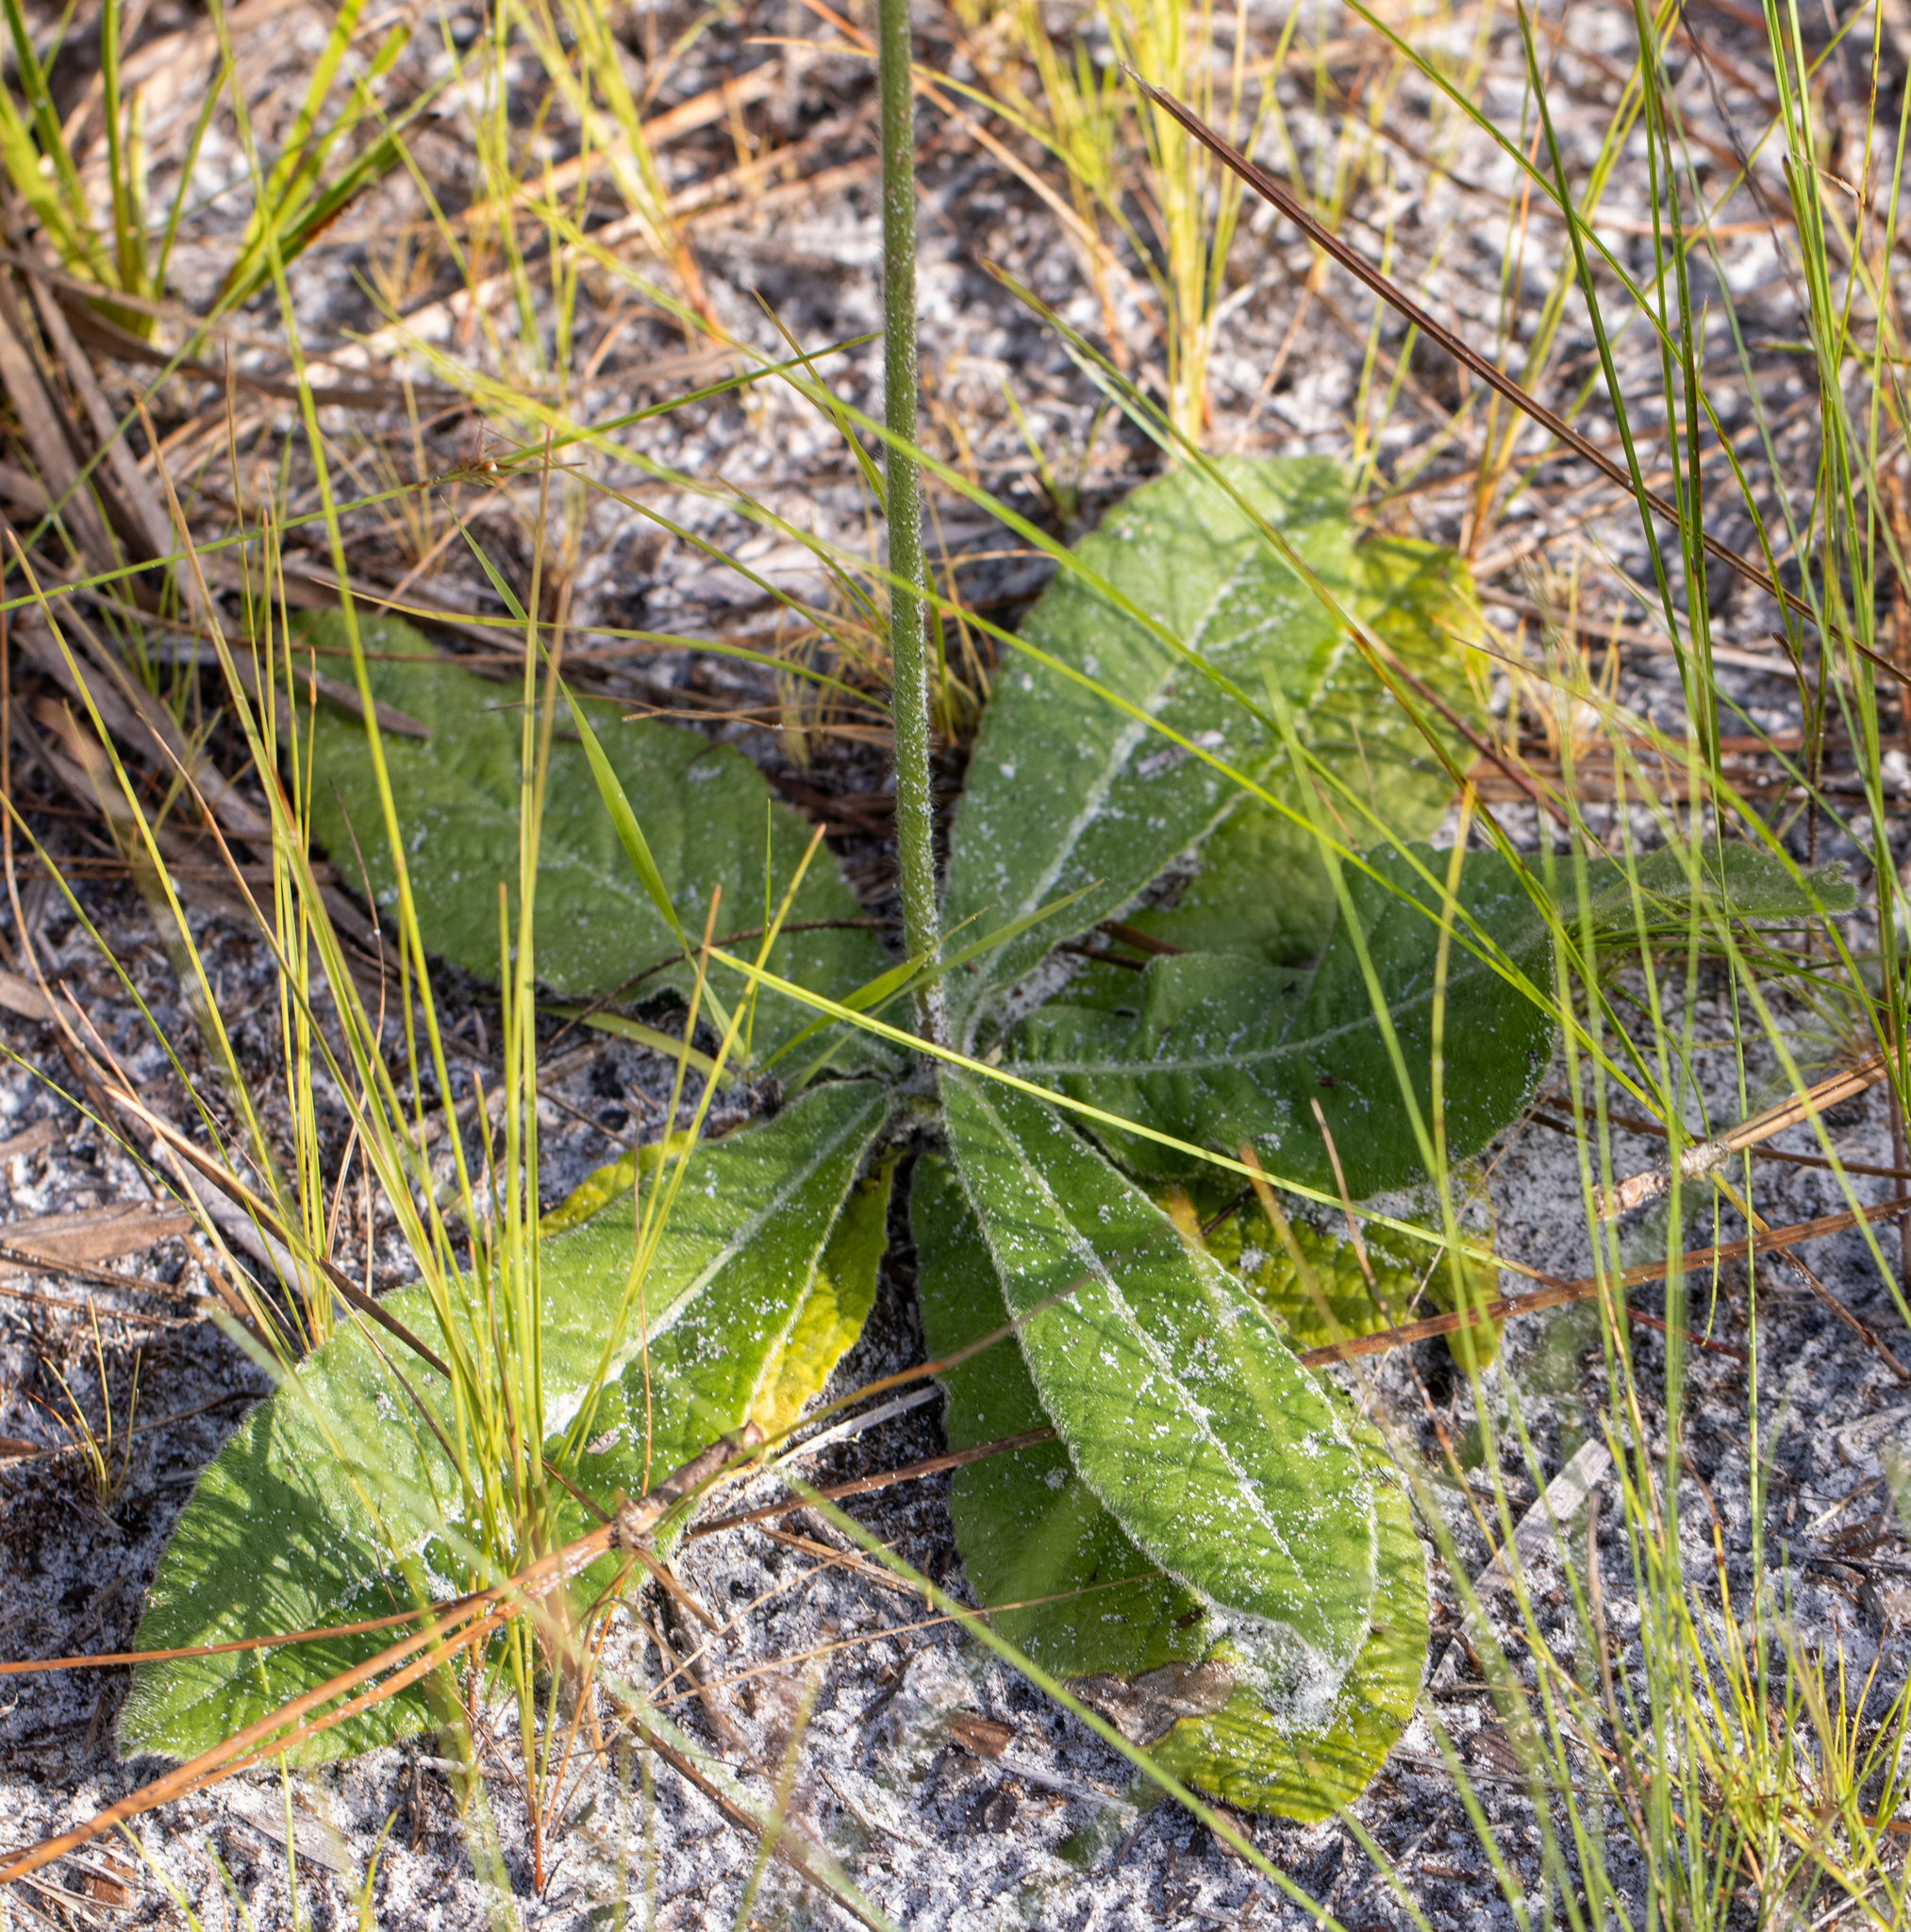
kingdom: Plantae
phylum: Tracheophyta
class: Magnoliopsida
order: Asterales
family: Asteraceae
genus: Elephantopus
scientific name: Elephantopus elatus
